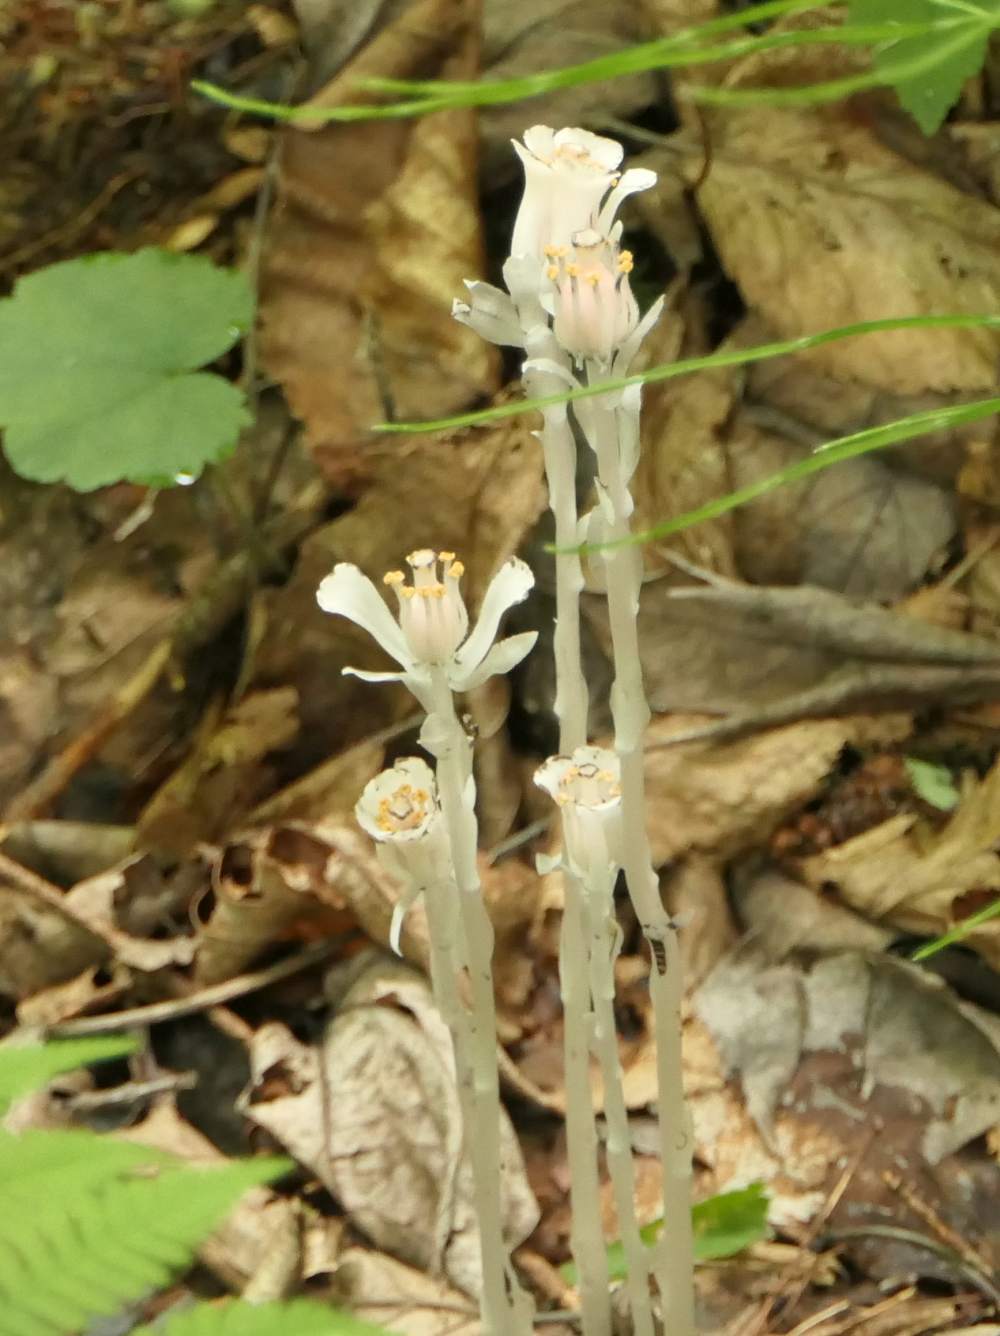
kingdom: Plantae
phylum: Tracheophyta
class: Magnoliopsida
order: Ericales
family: Ericaceae
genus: Monotropa
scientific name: Monotropa uniflora
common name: Convulsion root
